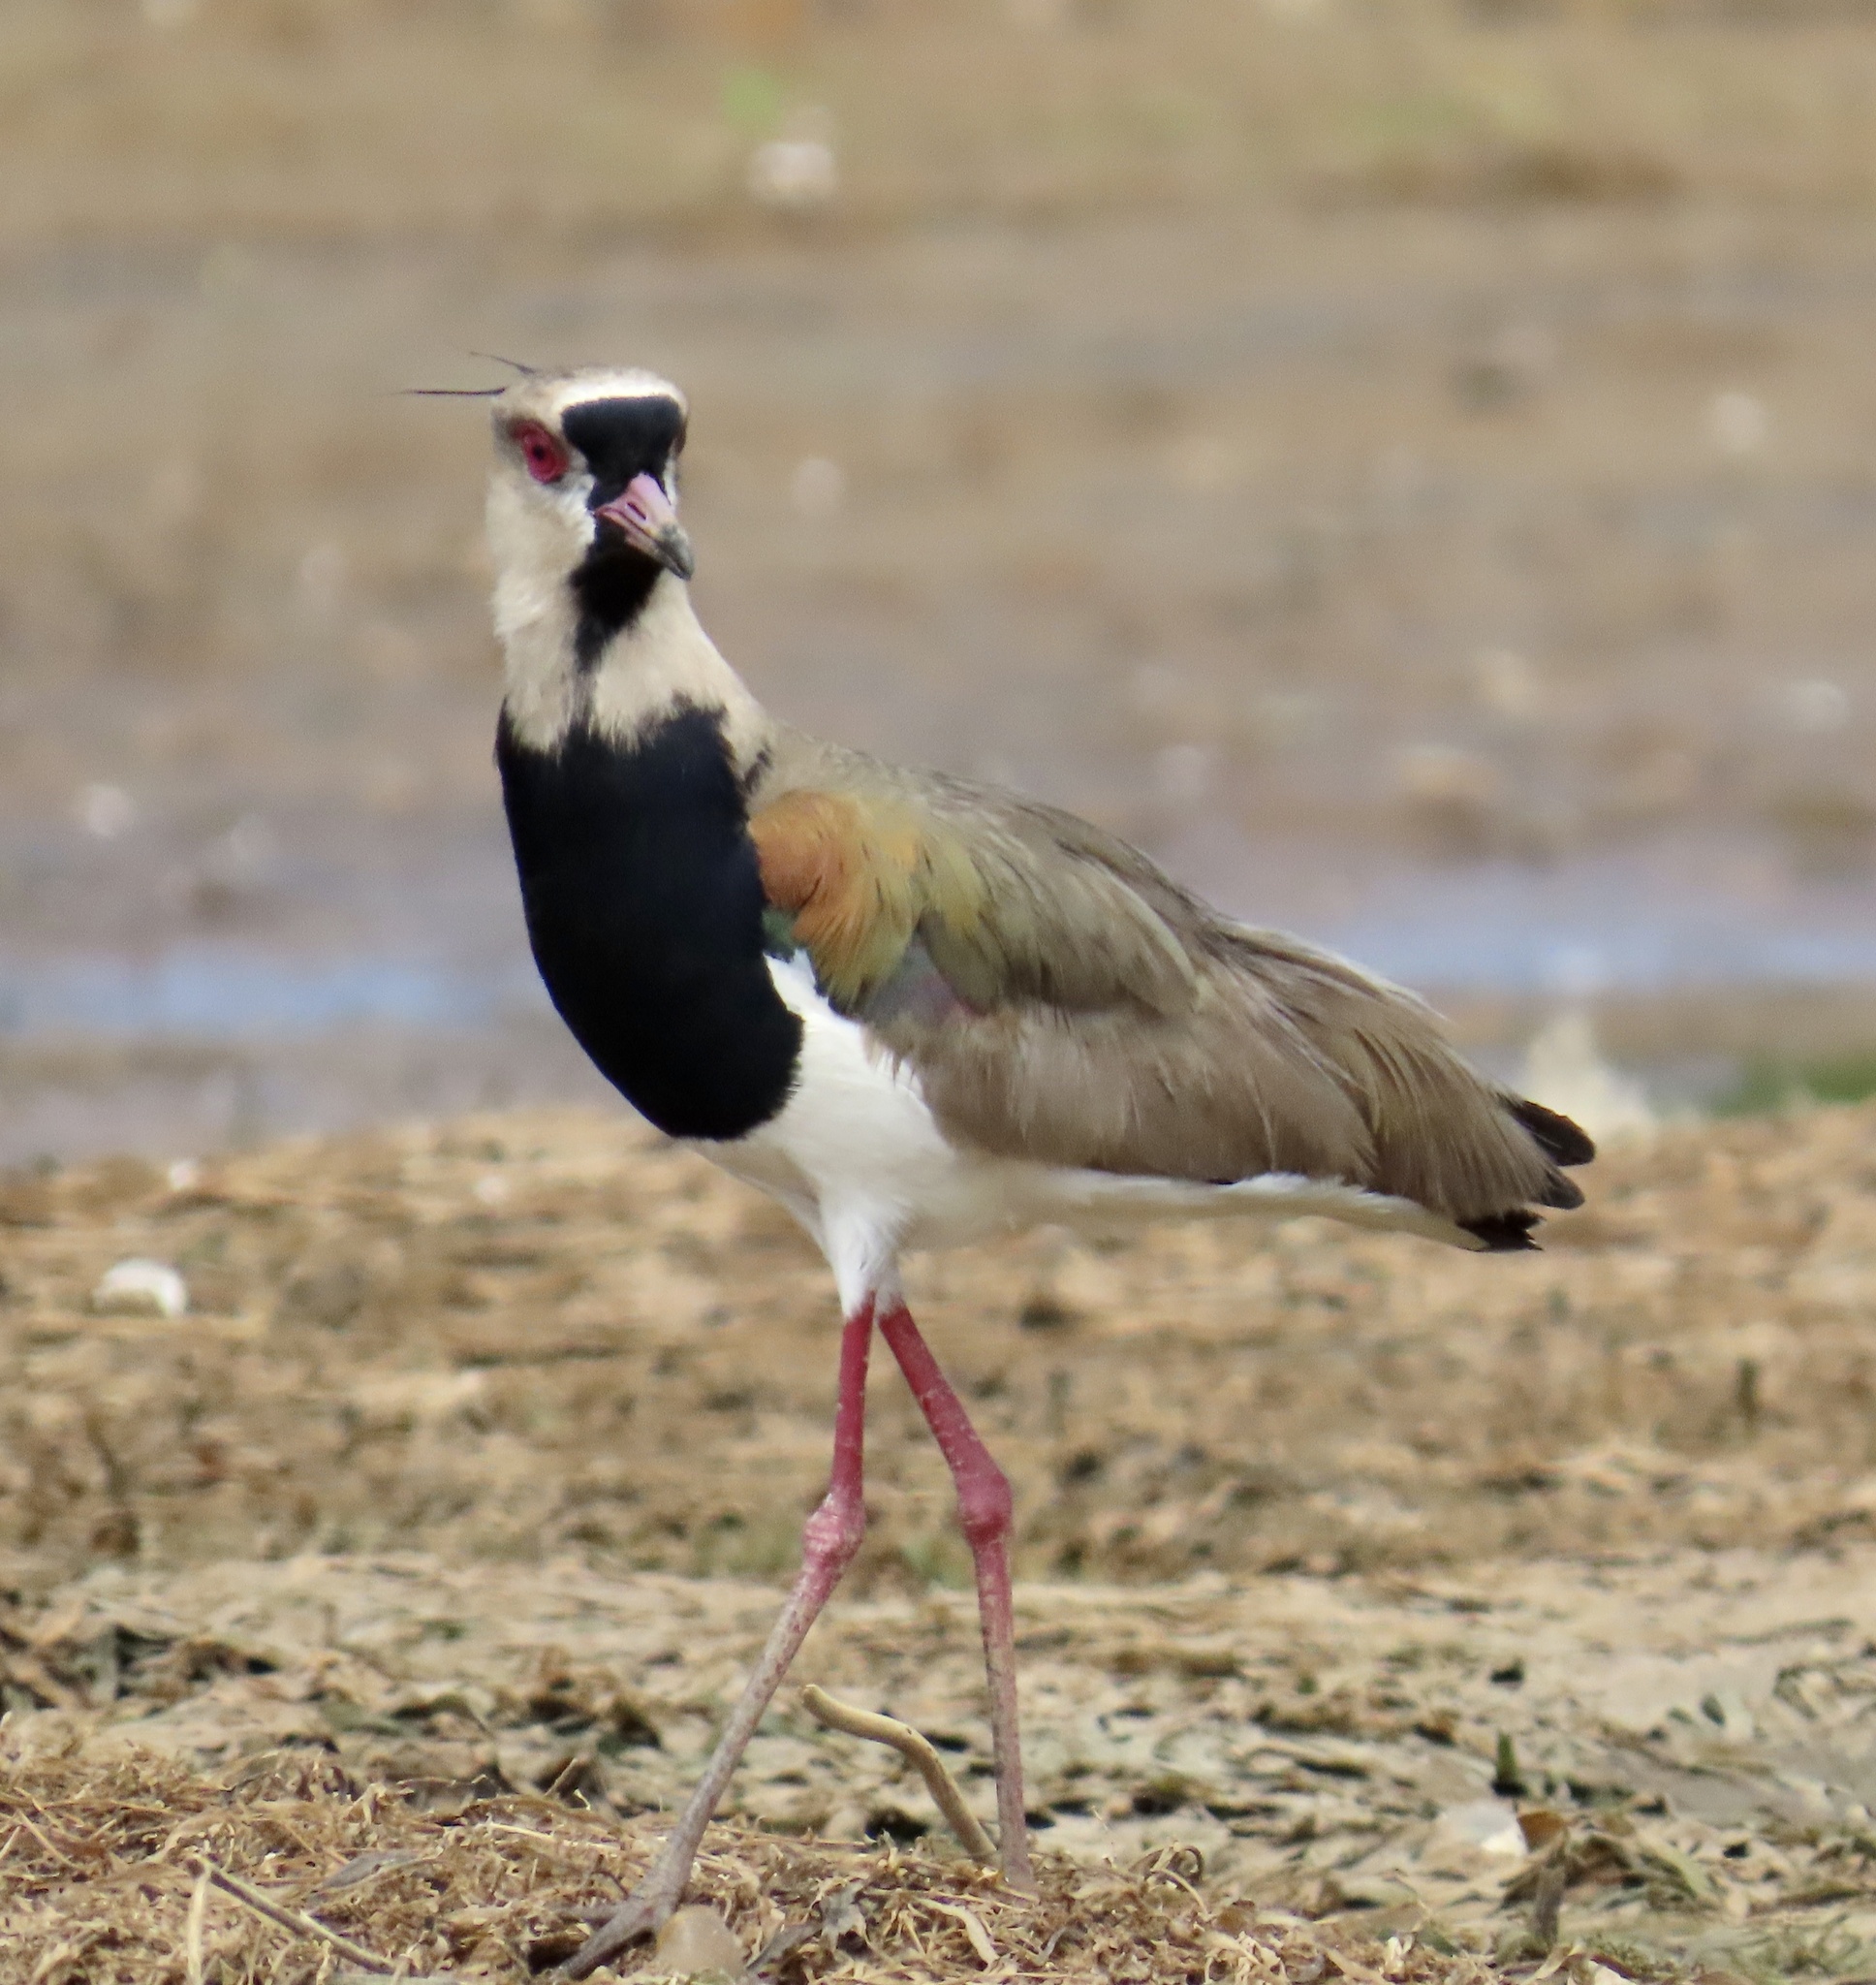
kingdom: Animalia
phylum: Chordata
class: Aves
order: Charadriiformes
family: Charadriidae
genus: Vanellus
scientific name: Vanellus chilensis
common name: Southern lapwing
